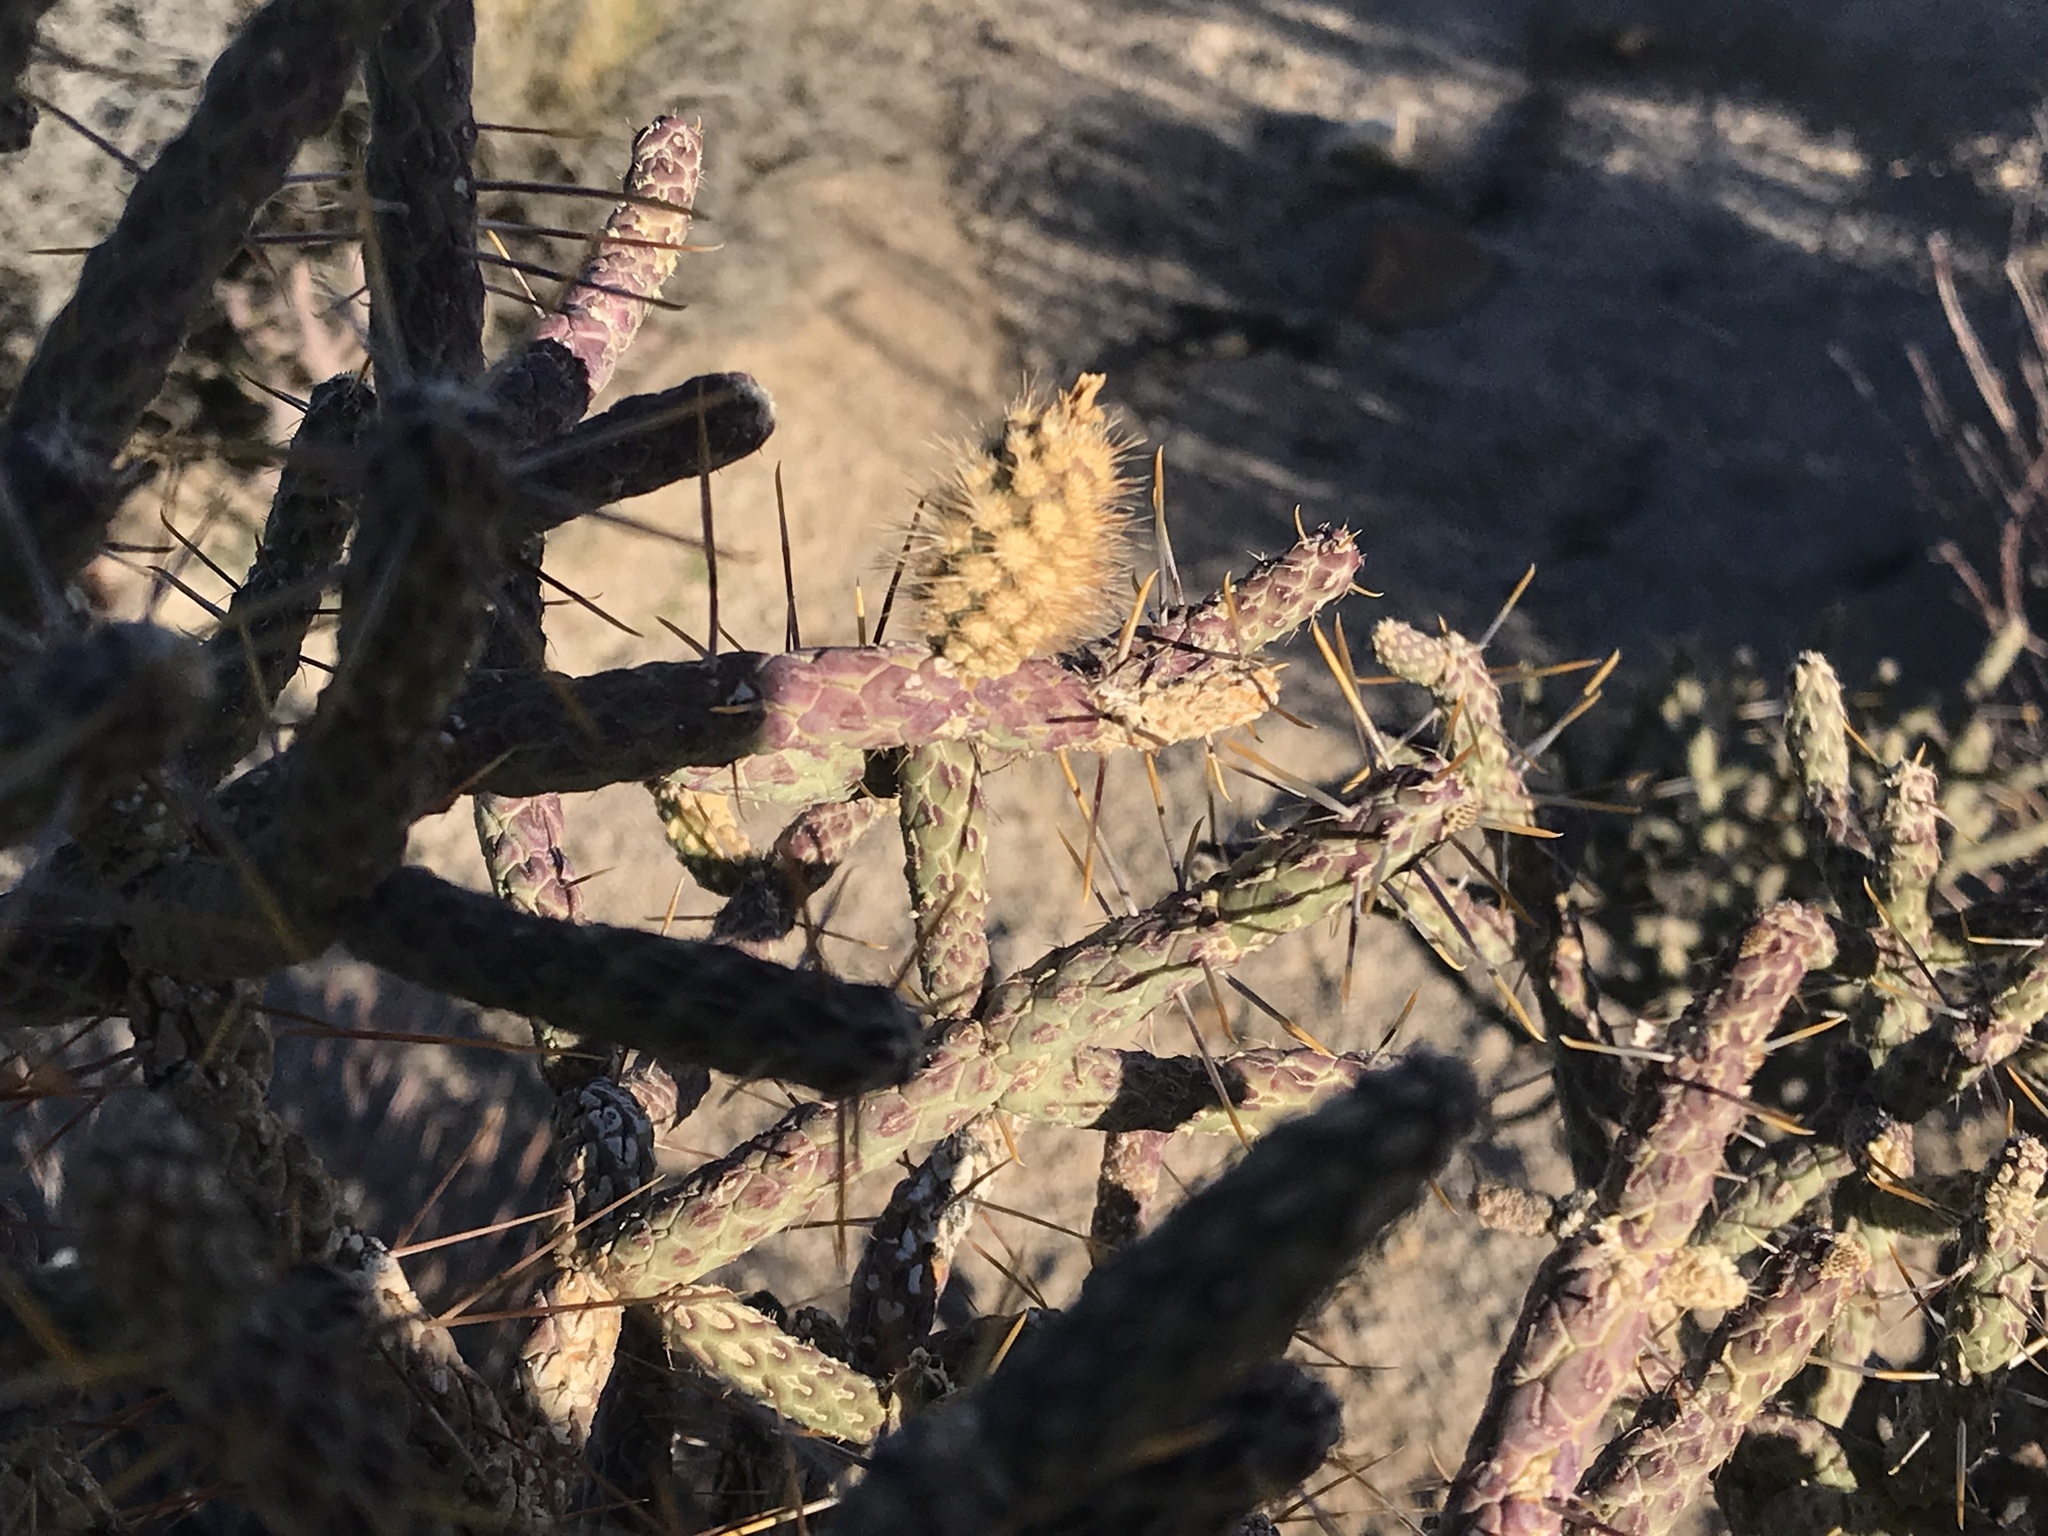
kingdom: Plantae
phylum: Tracheophyta
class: Magnoliopsida
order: Caryophyllales
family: Cactaceae
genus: Cylindropuntia
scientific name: Cylindropuntia ramosissima
